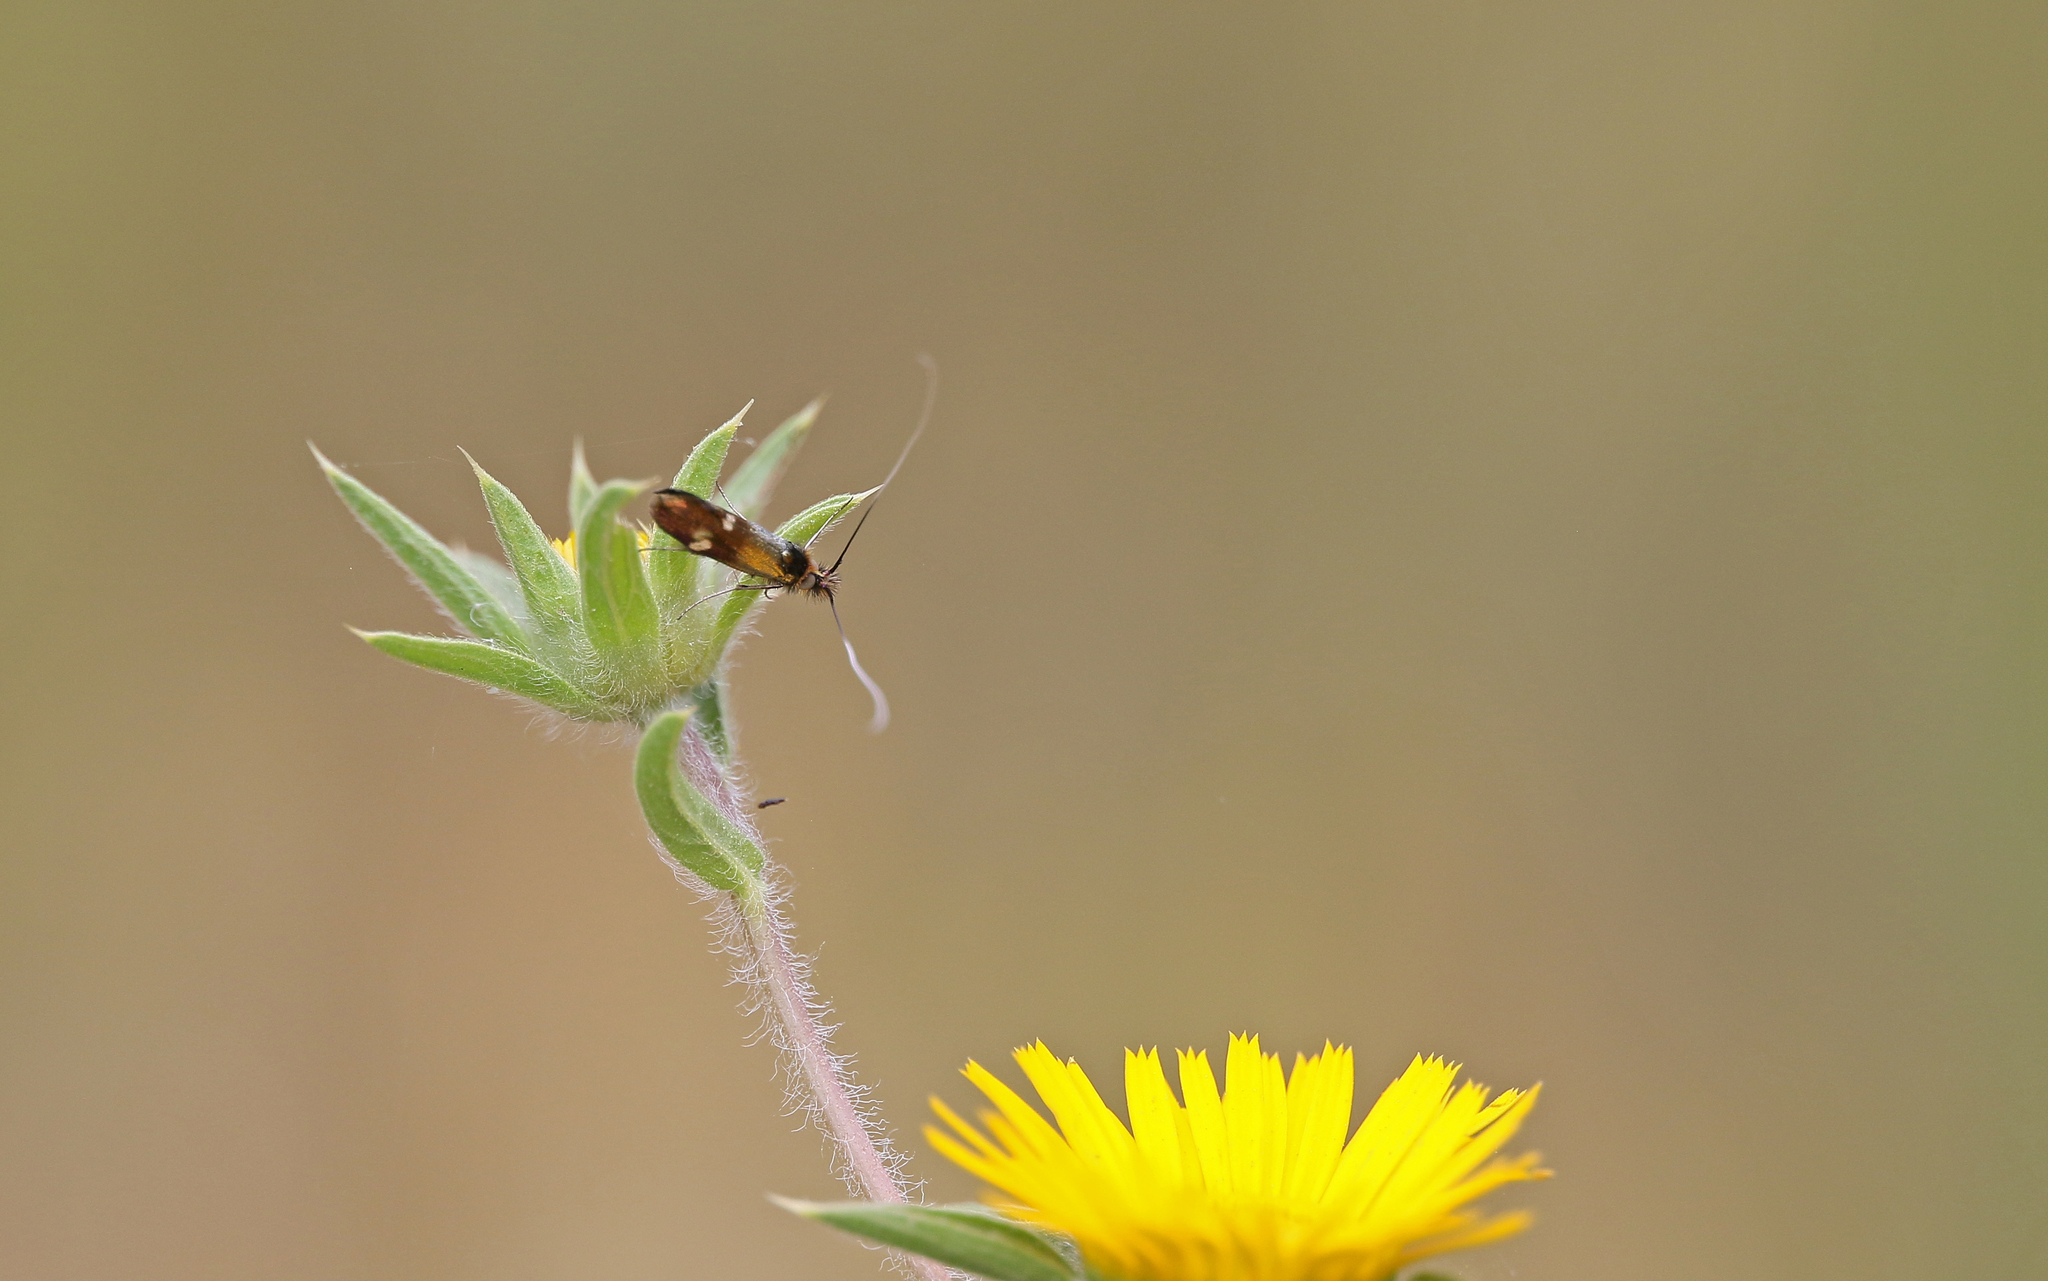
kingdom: Animalia
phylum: Arthropoda
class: Insecta
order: Lepidoptera
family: Adelidae
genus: Nemophora
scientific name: Nemophora raddaella
